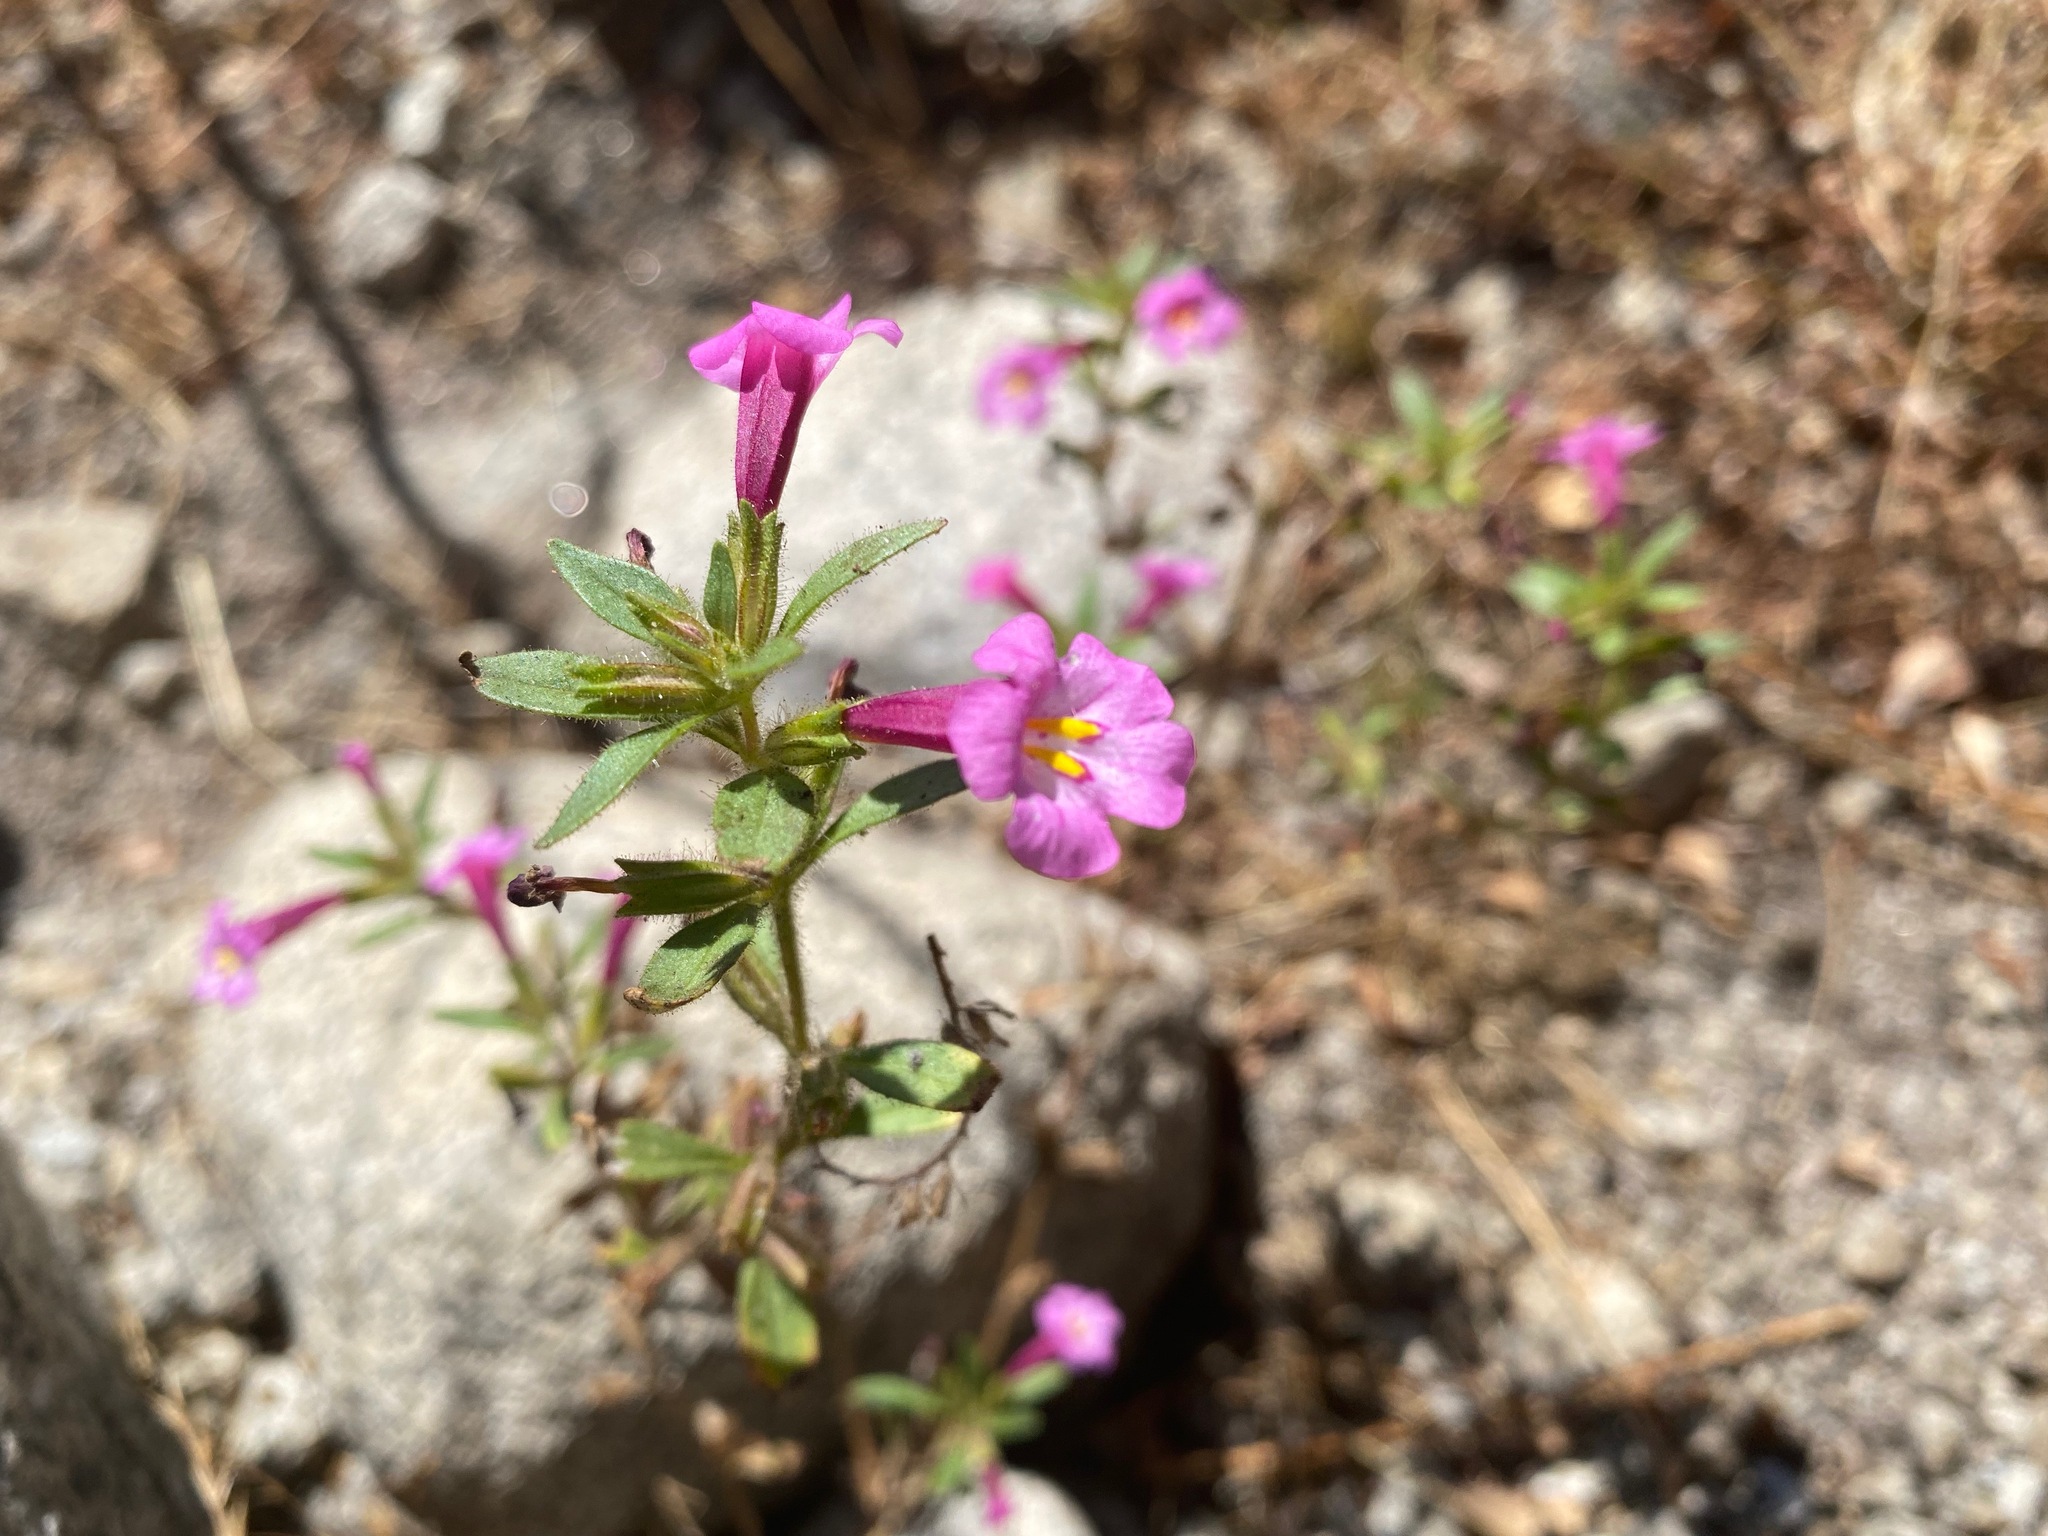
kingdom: Plantae
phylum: Tracheophyta
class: Magnoliopsida
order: Lamiales
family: Phrymaceae
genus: Diplacus
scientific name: Diplacus torreyi
